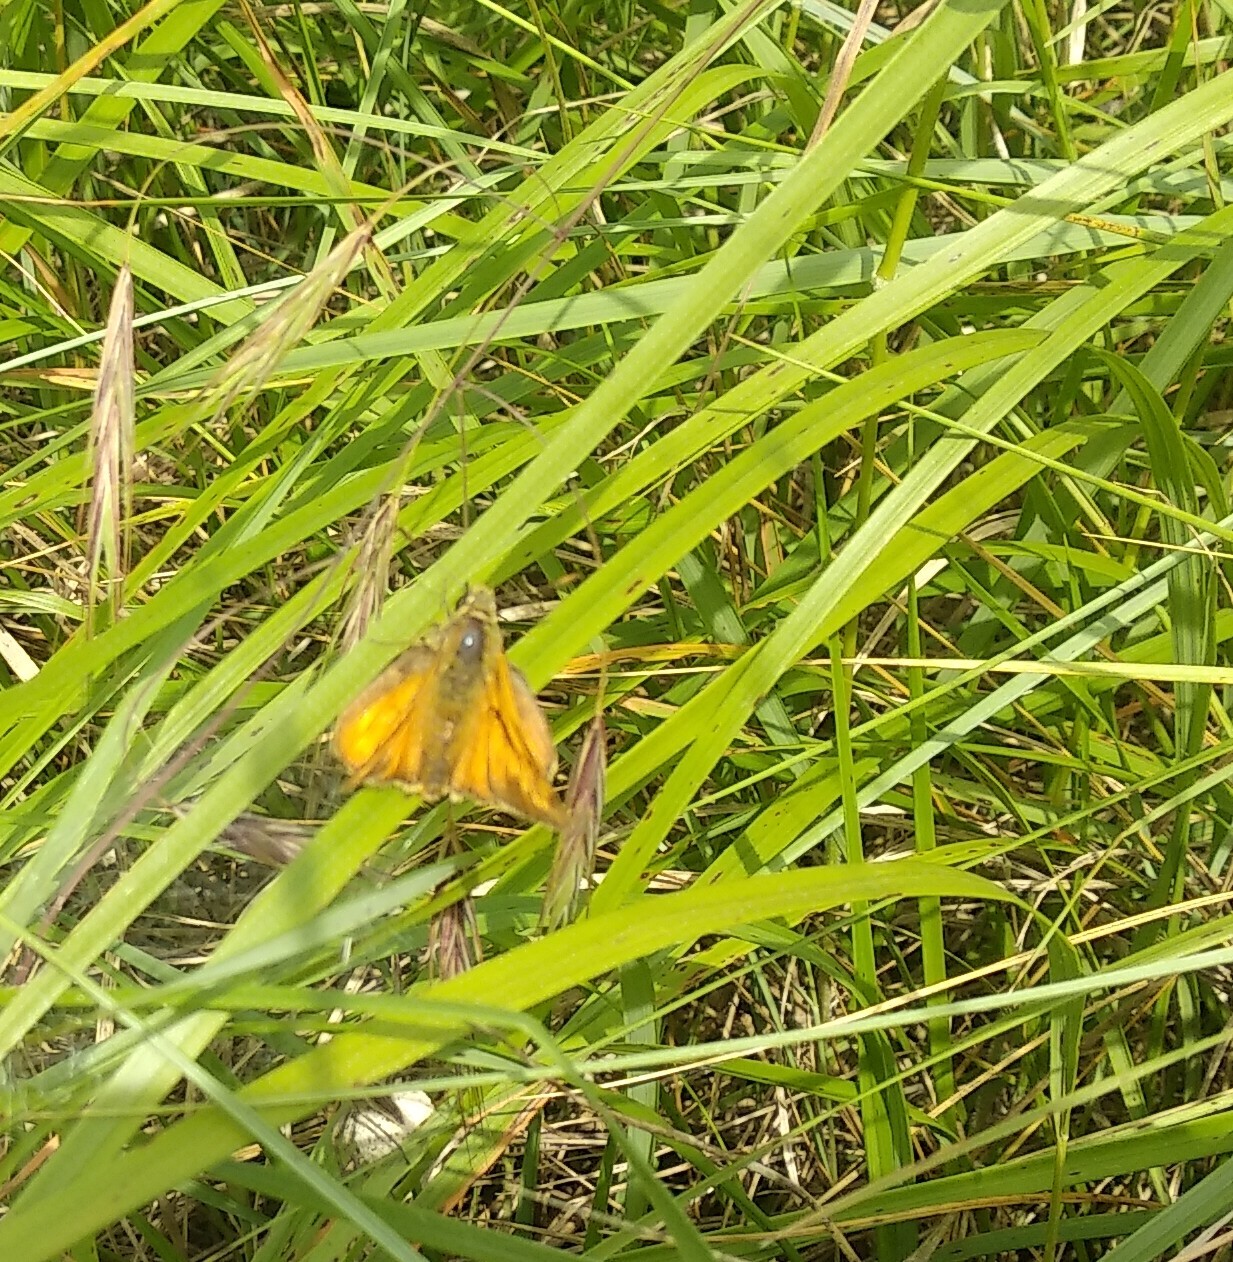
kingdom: Animalia
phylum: Arthropoda
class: Insecta
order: Lepidoptera
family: Hesperiidae
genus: Ochlodes
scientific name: Ochlodes venata
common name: Large skipper
